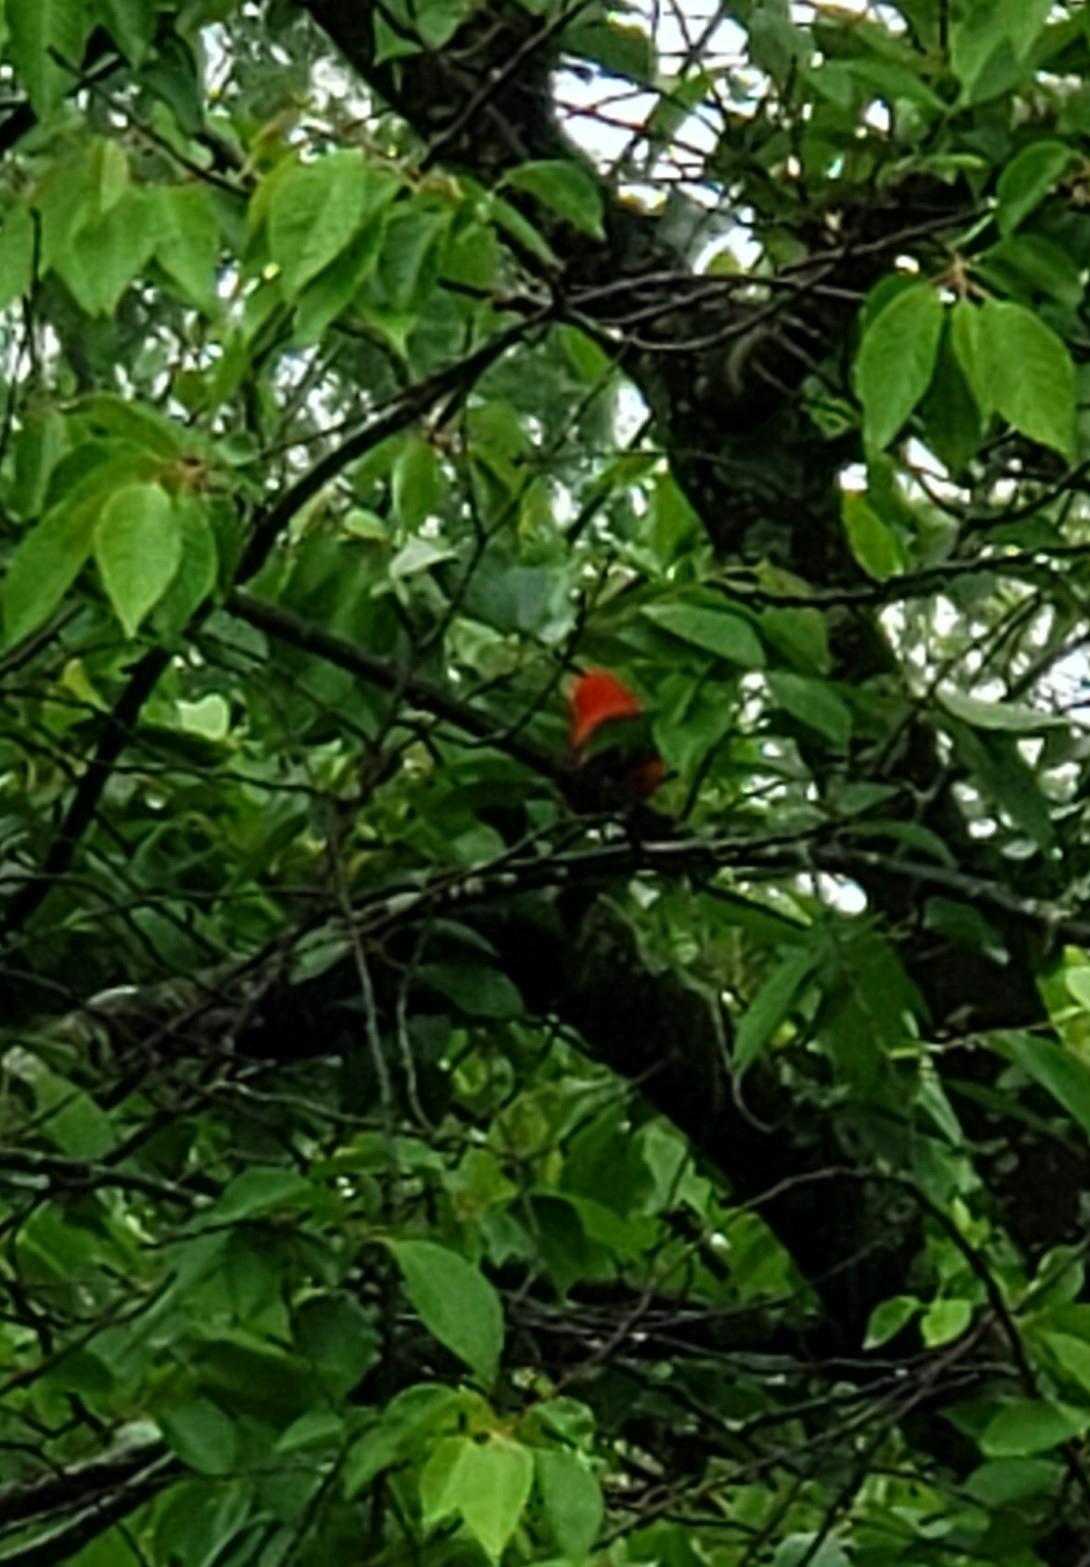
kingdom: Animalia
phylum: Chordata
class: Aves
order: Passeriformes
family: Cardinalidae
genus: Piranga
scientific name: Piranga olivacea
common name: Scarlet tanager
